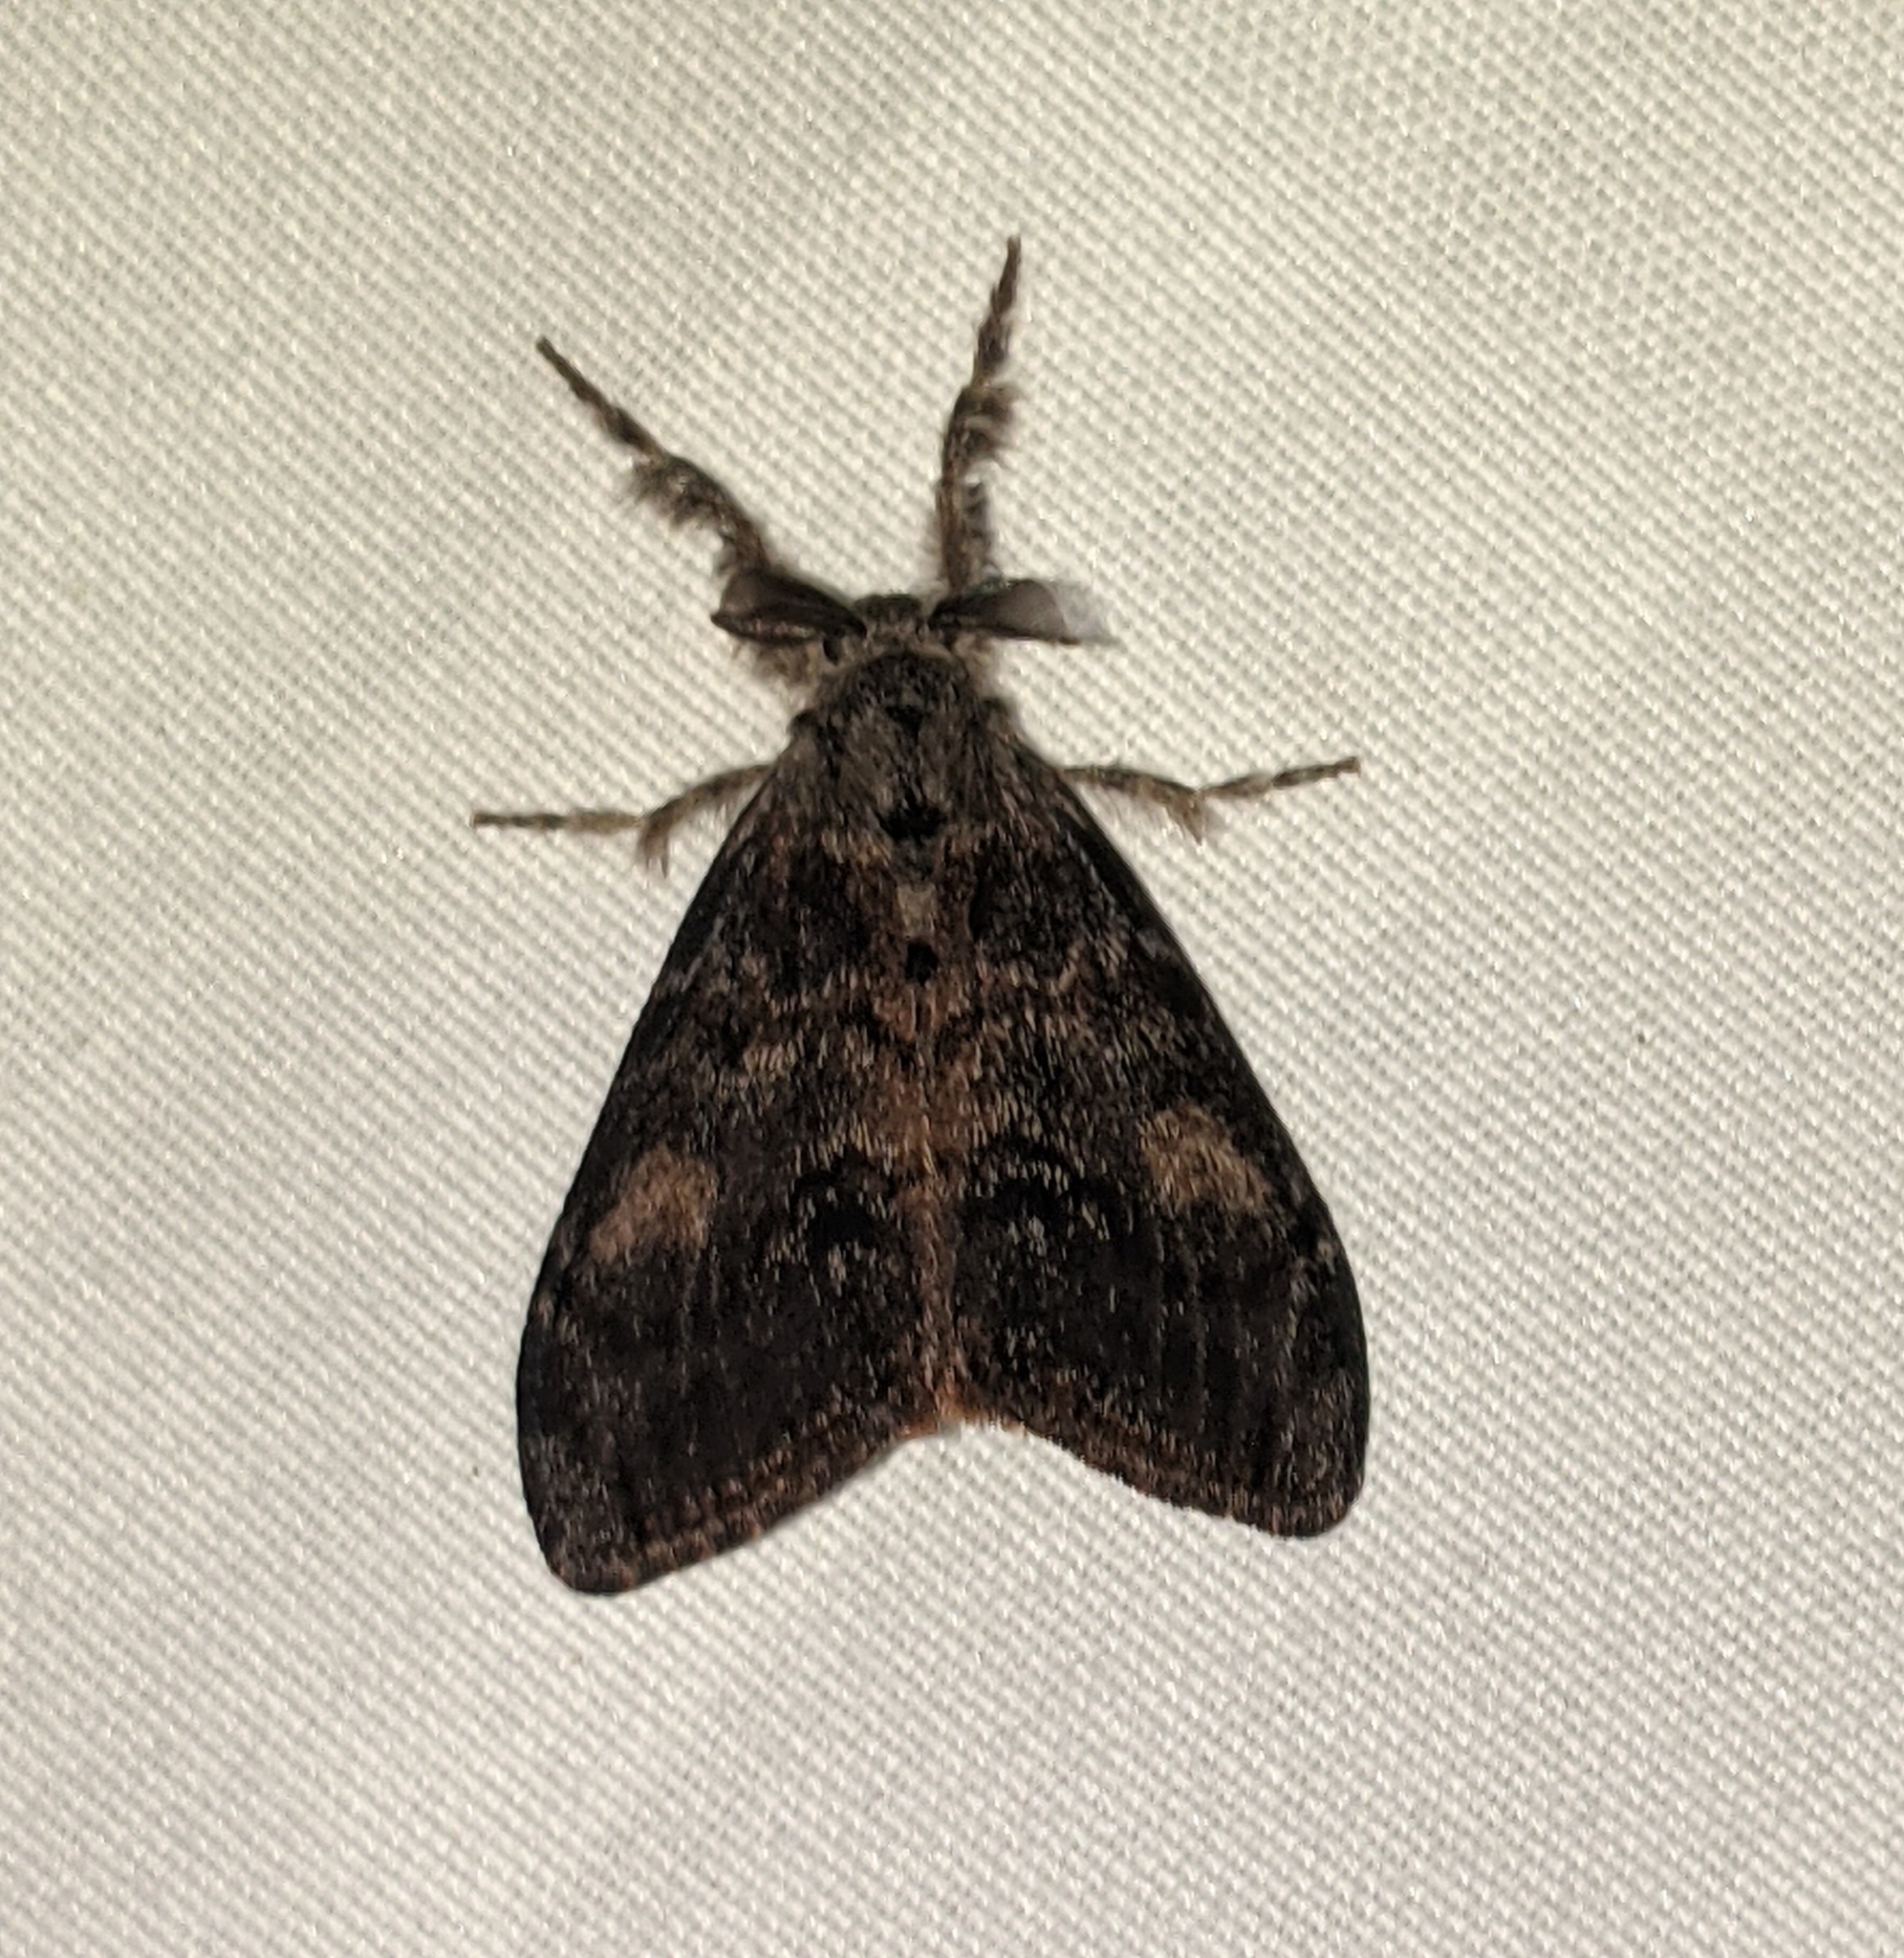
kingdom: Animalia
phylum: Arthropoda
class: Insecta
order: Lepidoptera
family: Erebidae
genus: Orgyia
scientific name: Orgyia pseudotsugata
